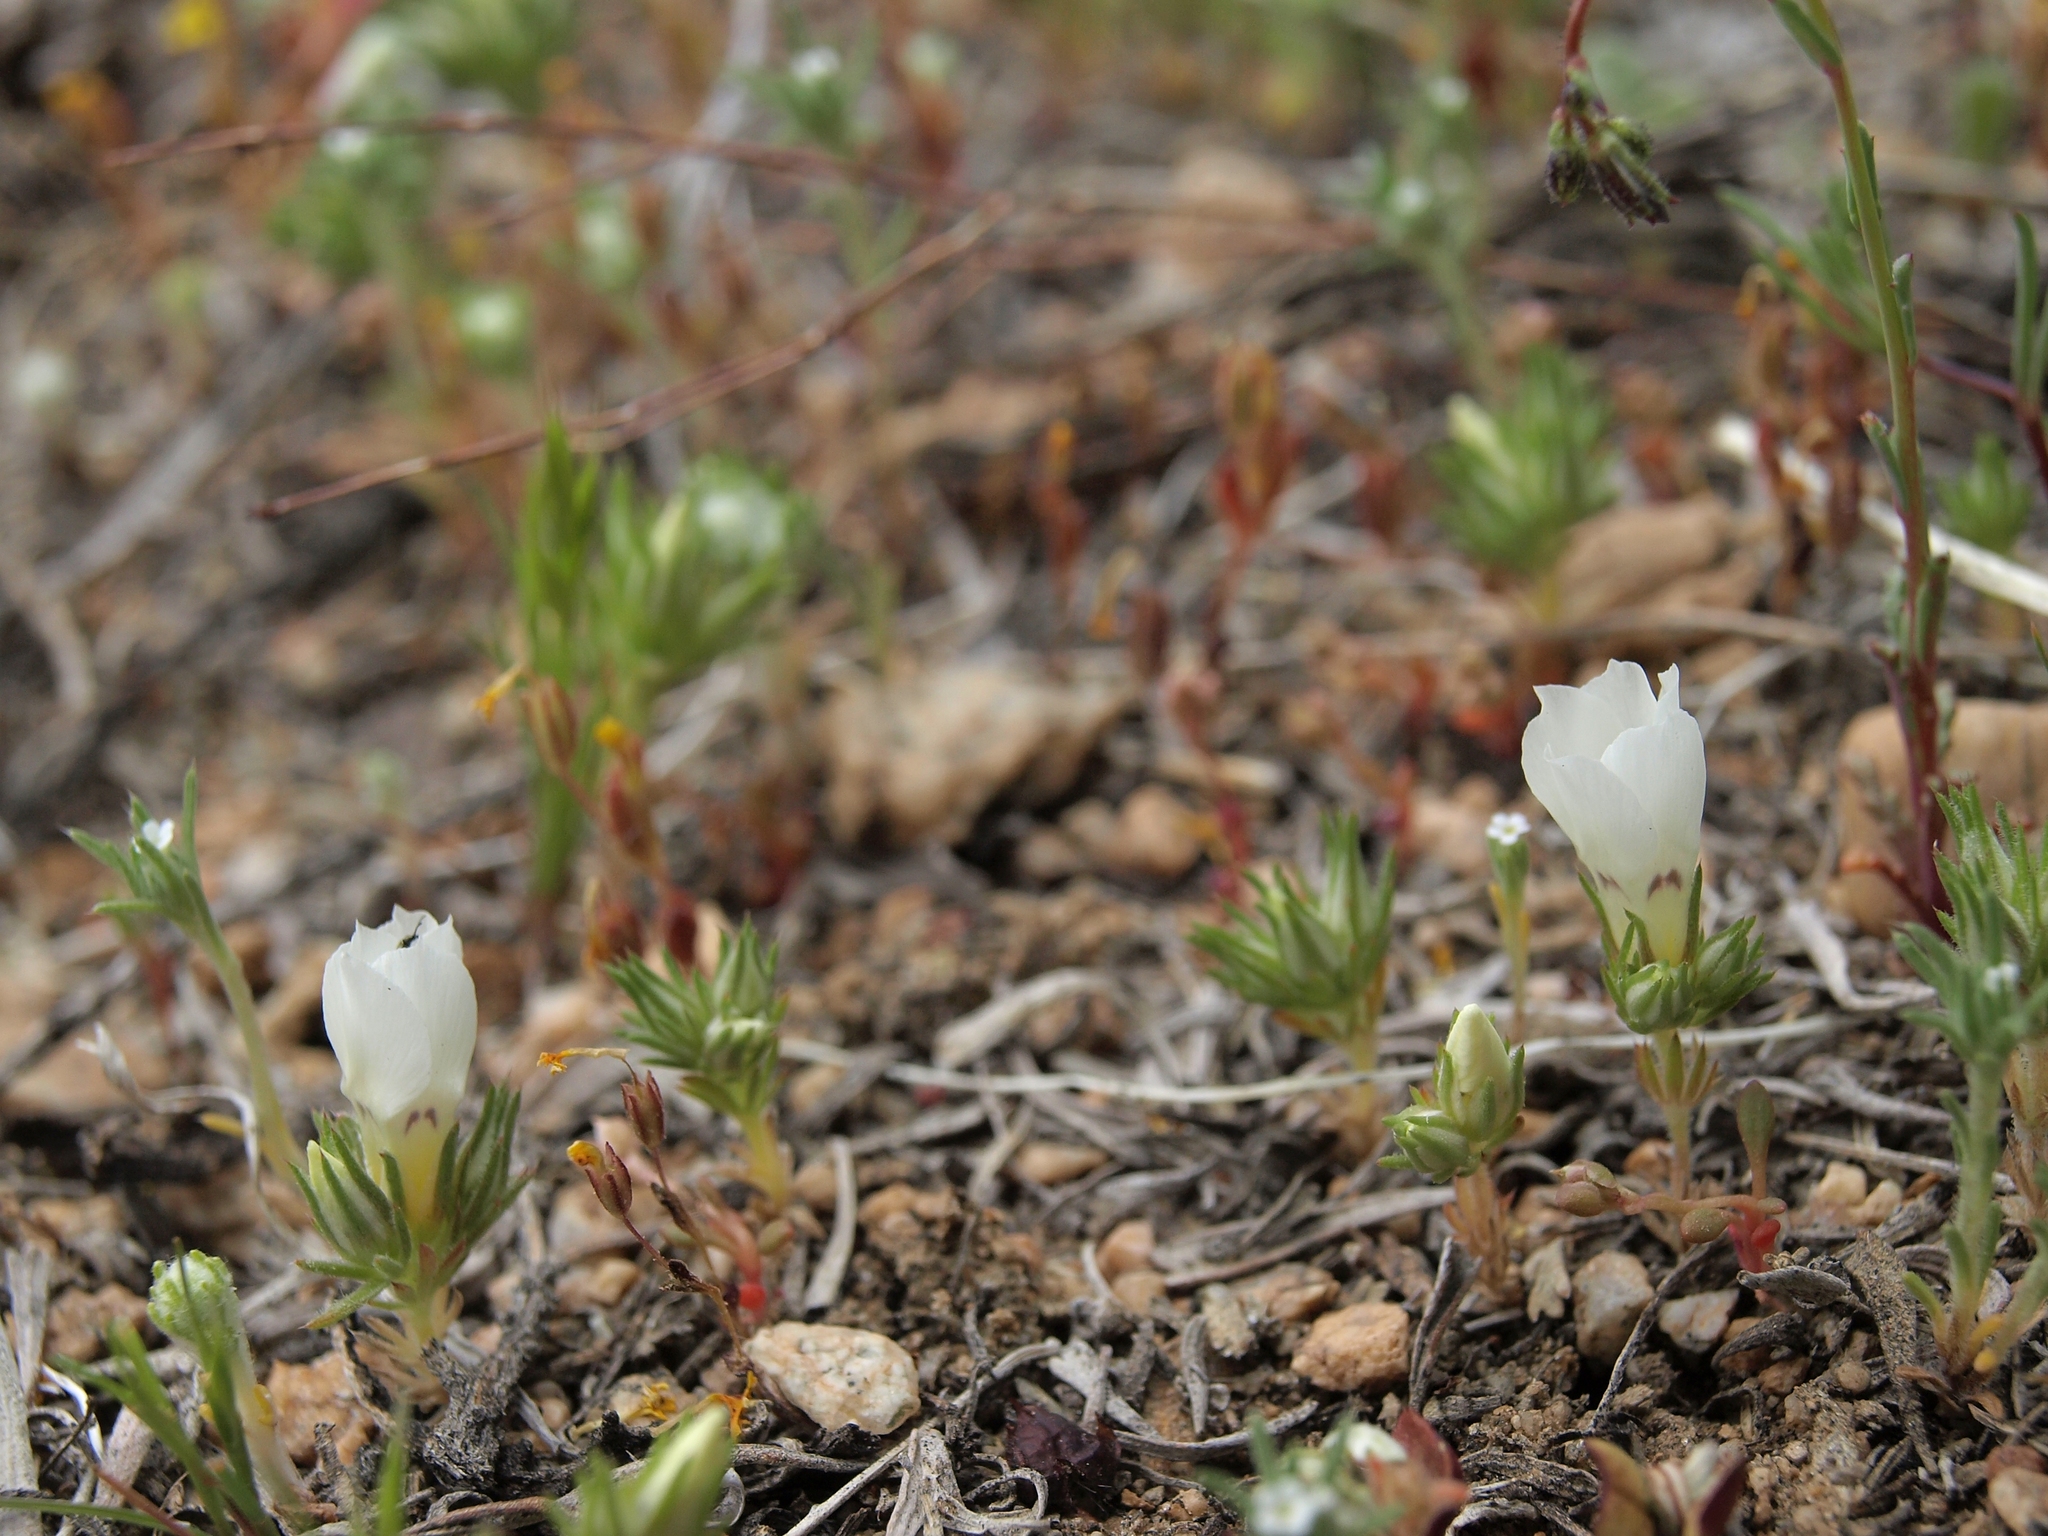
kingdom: Plantae
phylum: Tracheophyta
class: Magnoliopsida
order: Ericales
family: Polemoniaceae
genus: Linanthus
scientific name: Linanthus parryae
